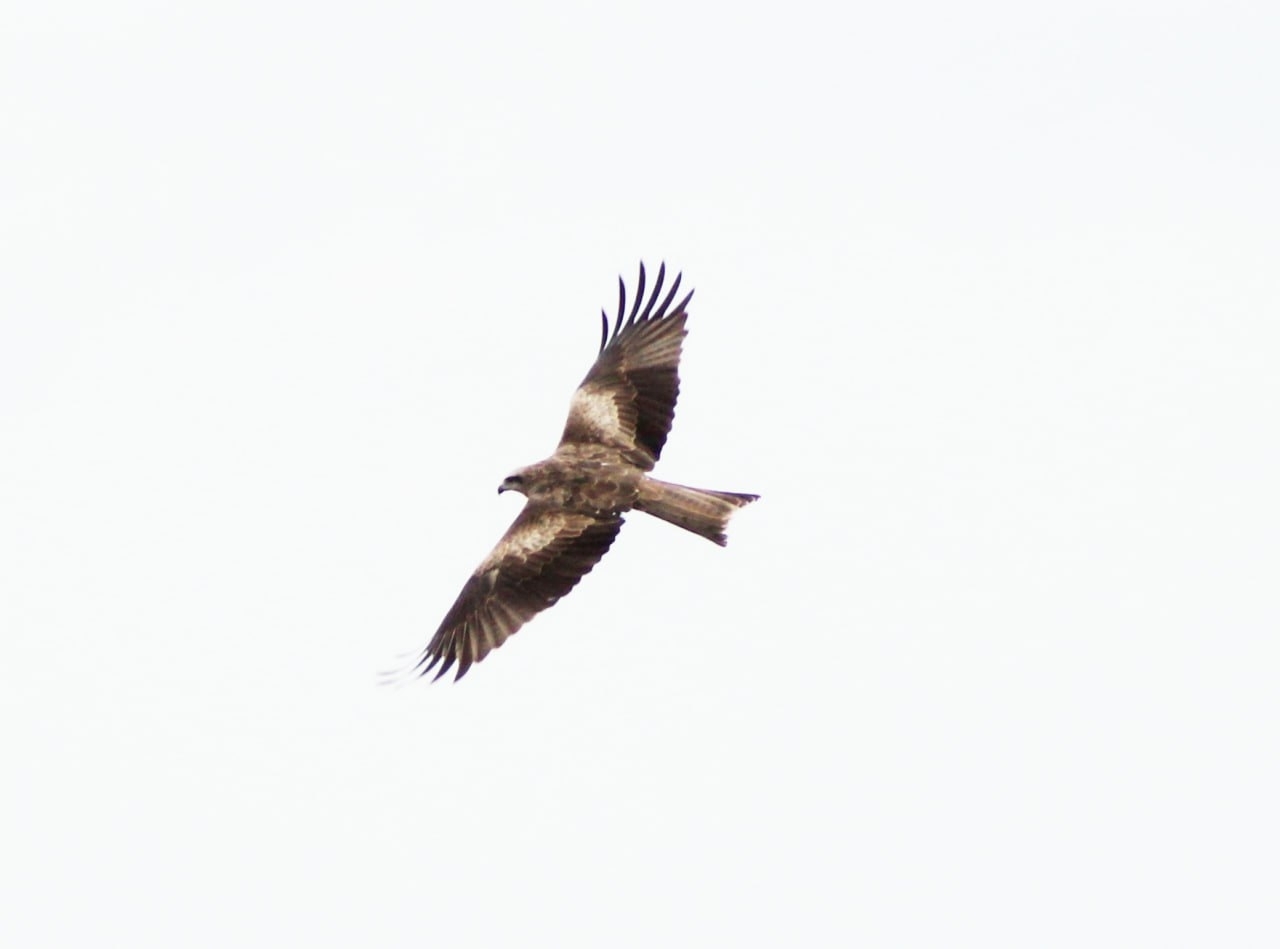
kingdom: Animalia
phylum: Chordata
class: Aves
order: Accipitriformes
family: Accipitridae
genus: Milvus
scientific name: Milvus migrans
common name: Black kite
